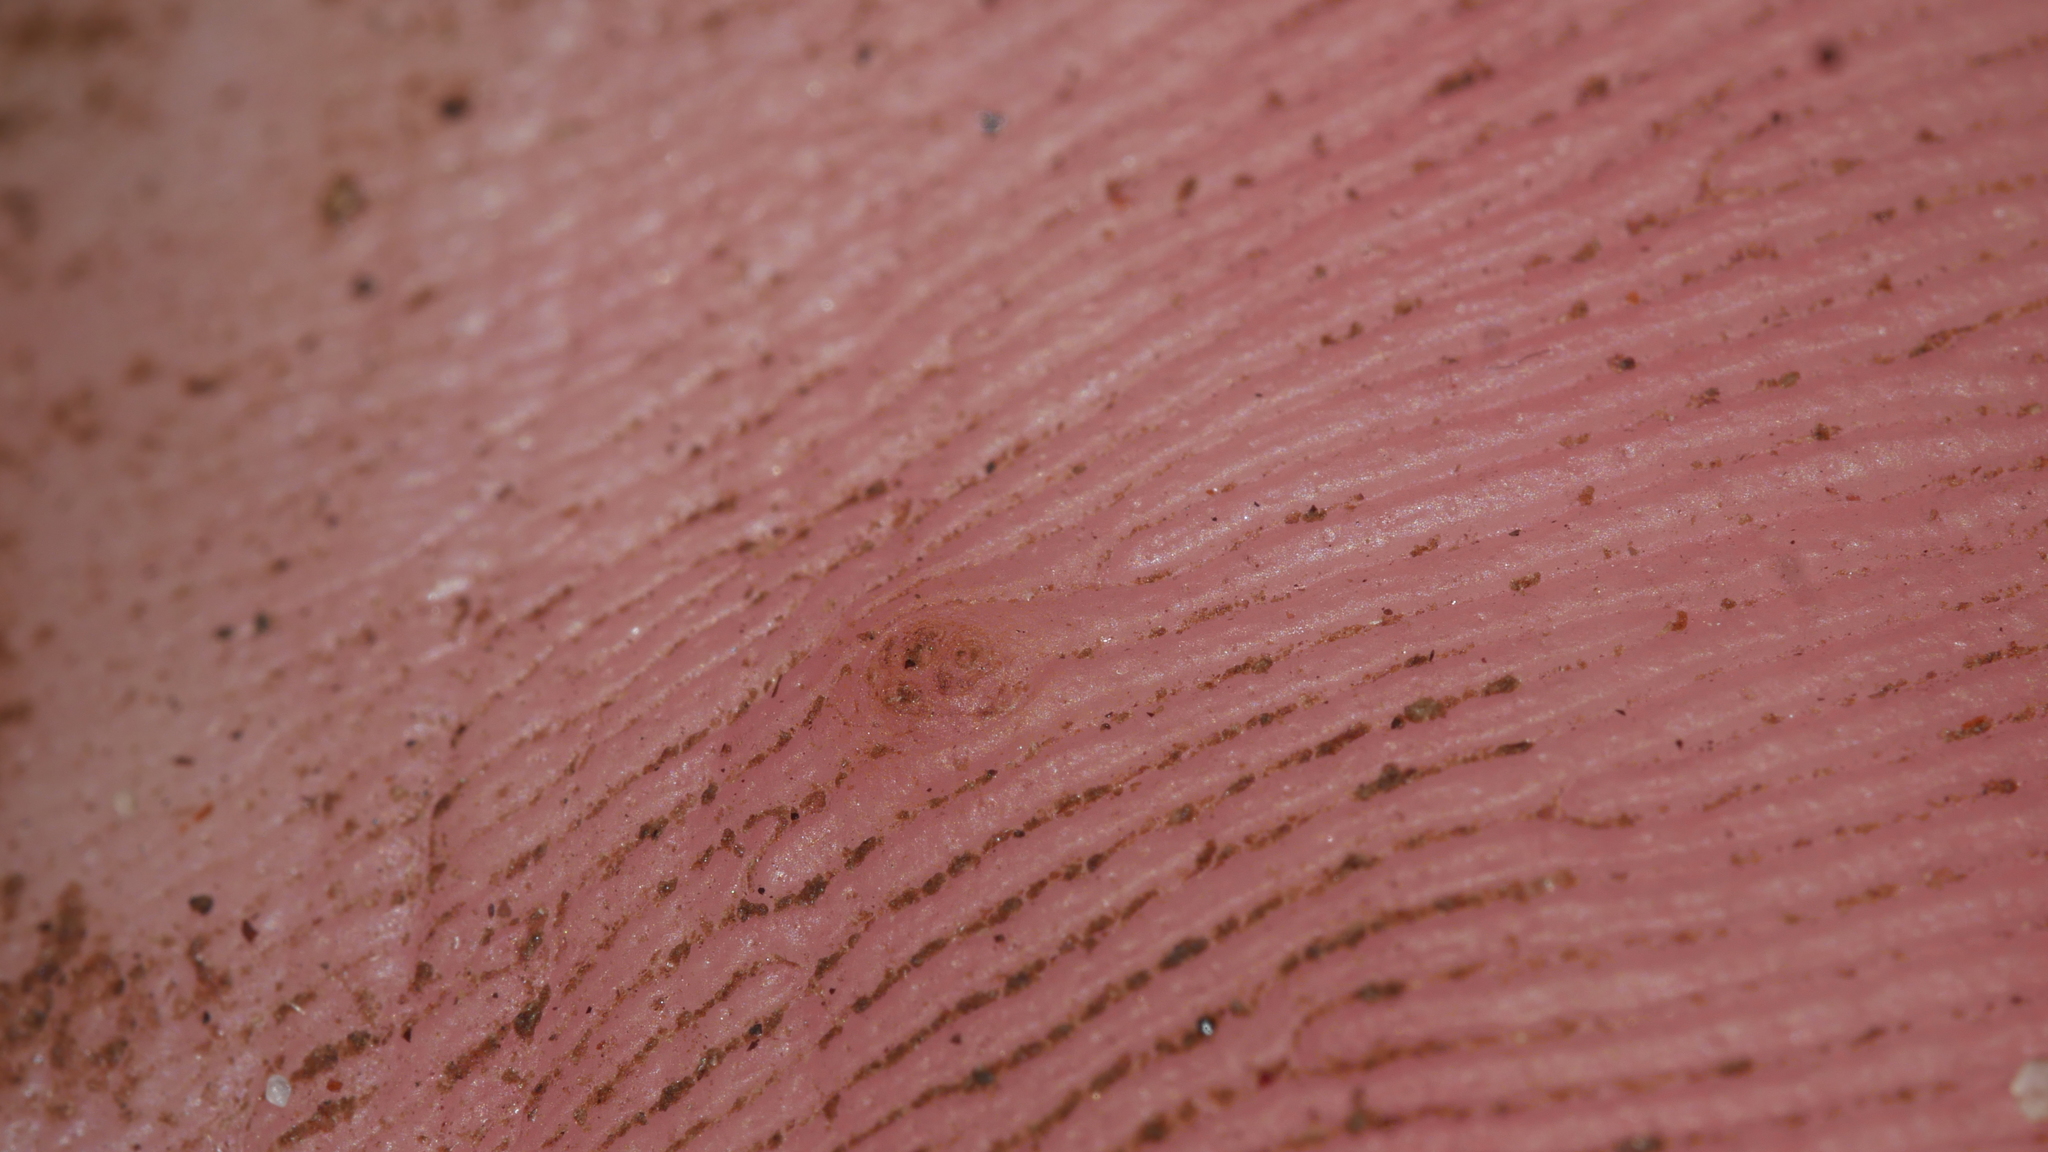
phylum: Cossaviricota
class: Papovaviricetes
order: Zurhausenvirales
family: Papillomaviridae
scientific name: Papillomaviridae
